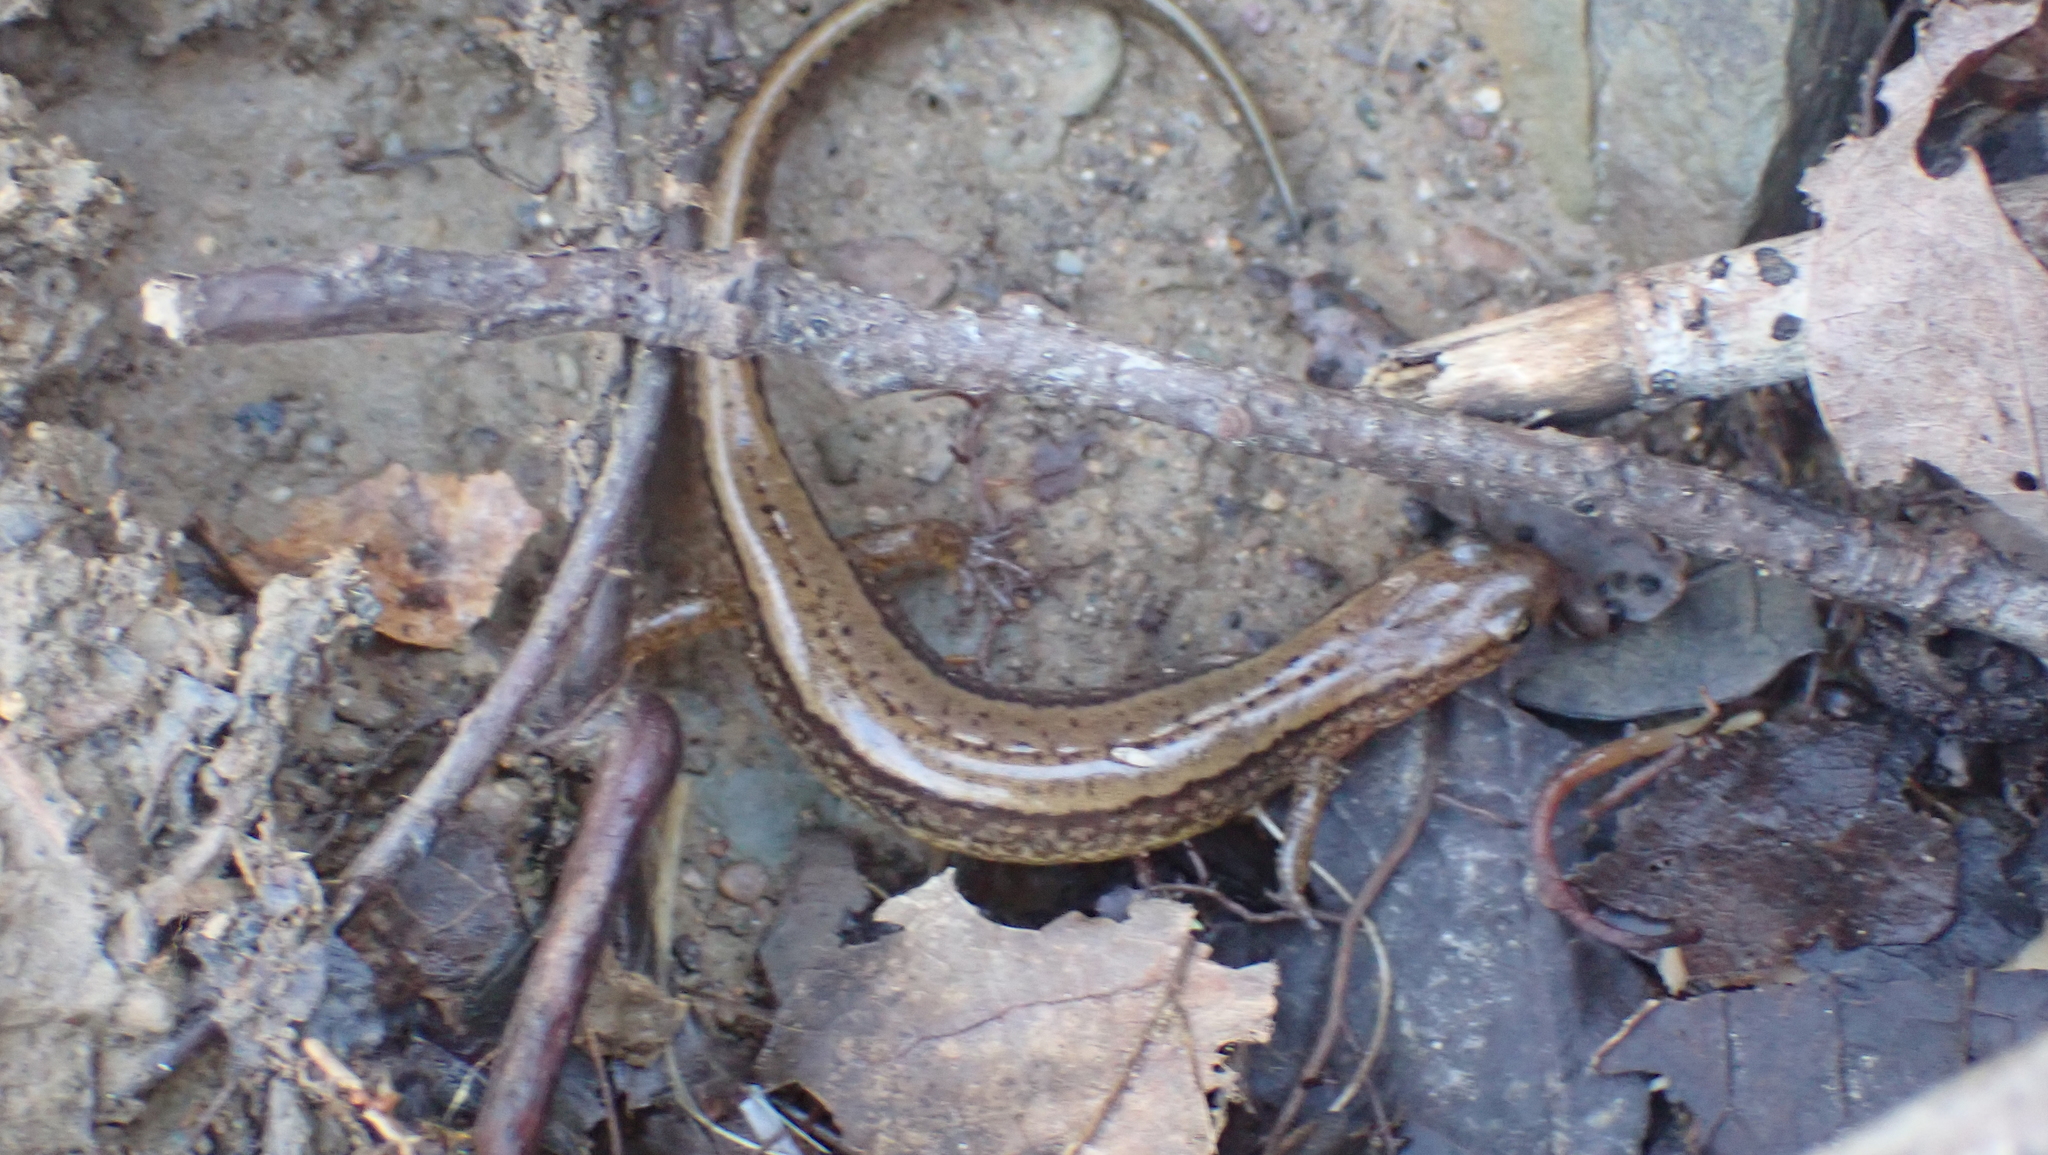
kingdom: Animalia
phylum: Chordata
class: Amphibia
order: Caudata
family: Plethodontidae
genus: Eurycea
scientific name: Eurycea cirrigera
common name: Southern two-lined salamander
